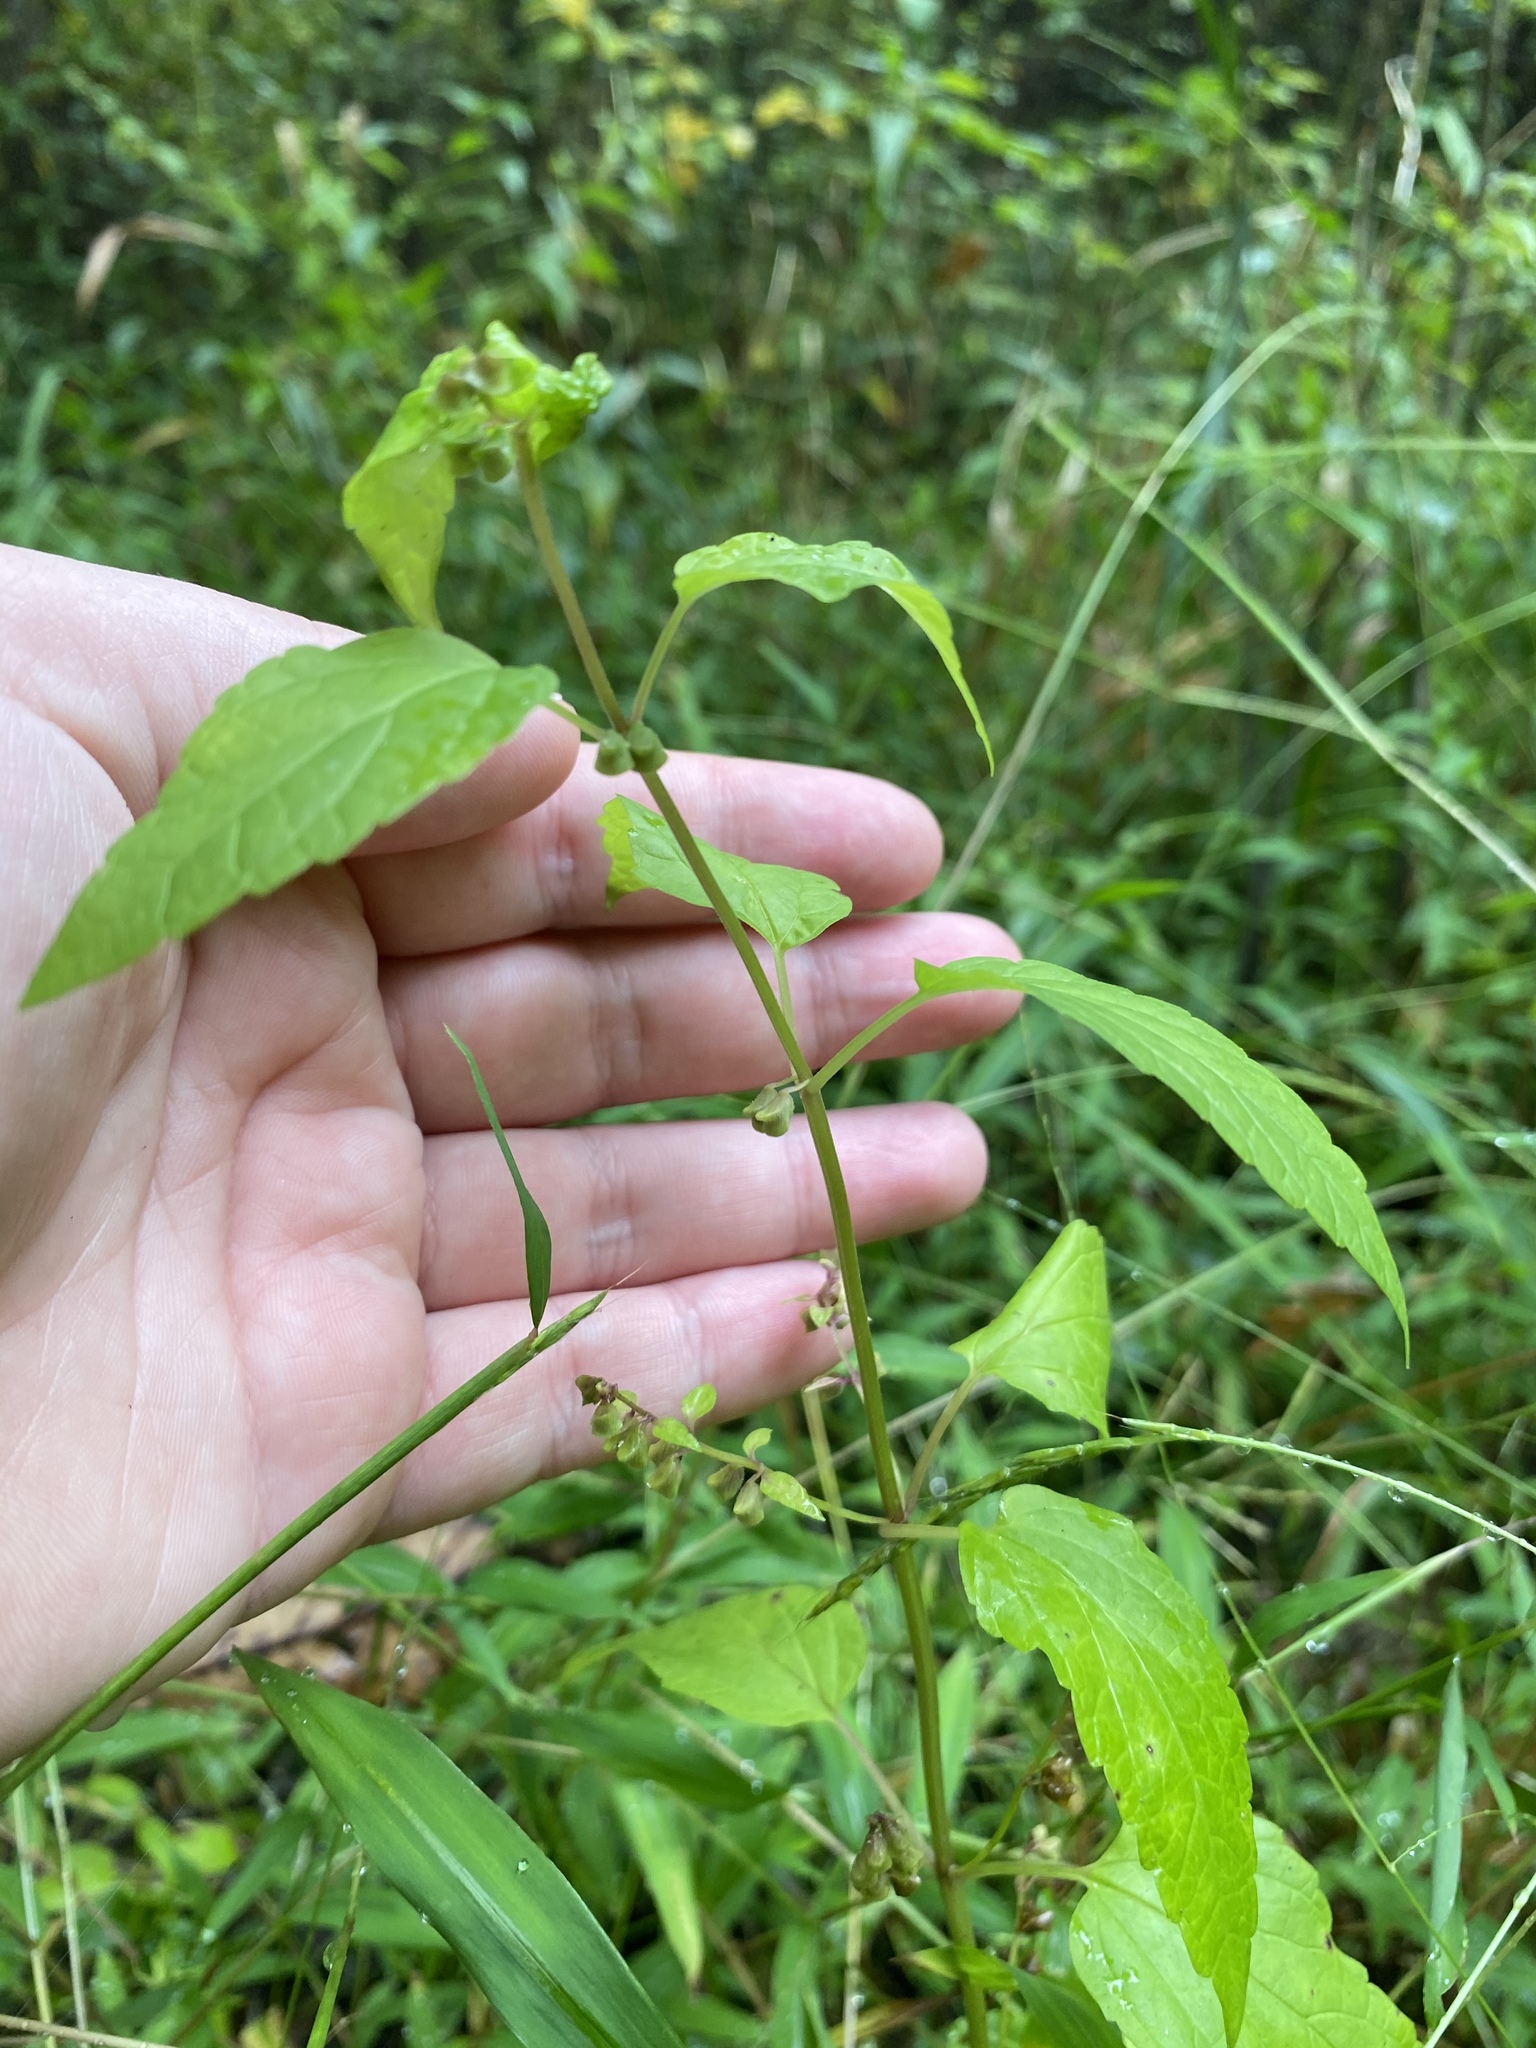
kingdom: Plantae
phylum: Tracheophyta
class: Magnoliopsida
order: Lamiales
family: Lamiaceae
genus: Scutellaria
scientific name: Scutellaria lateriflora
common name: Blue skullcap
